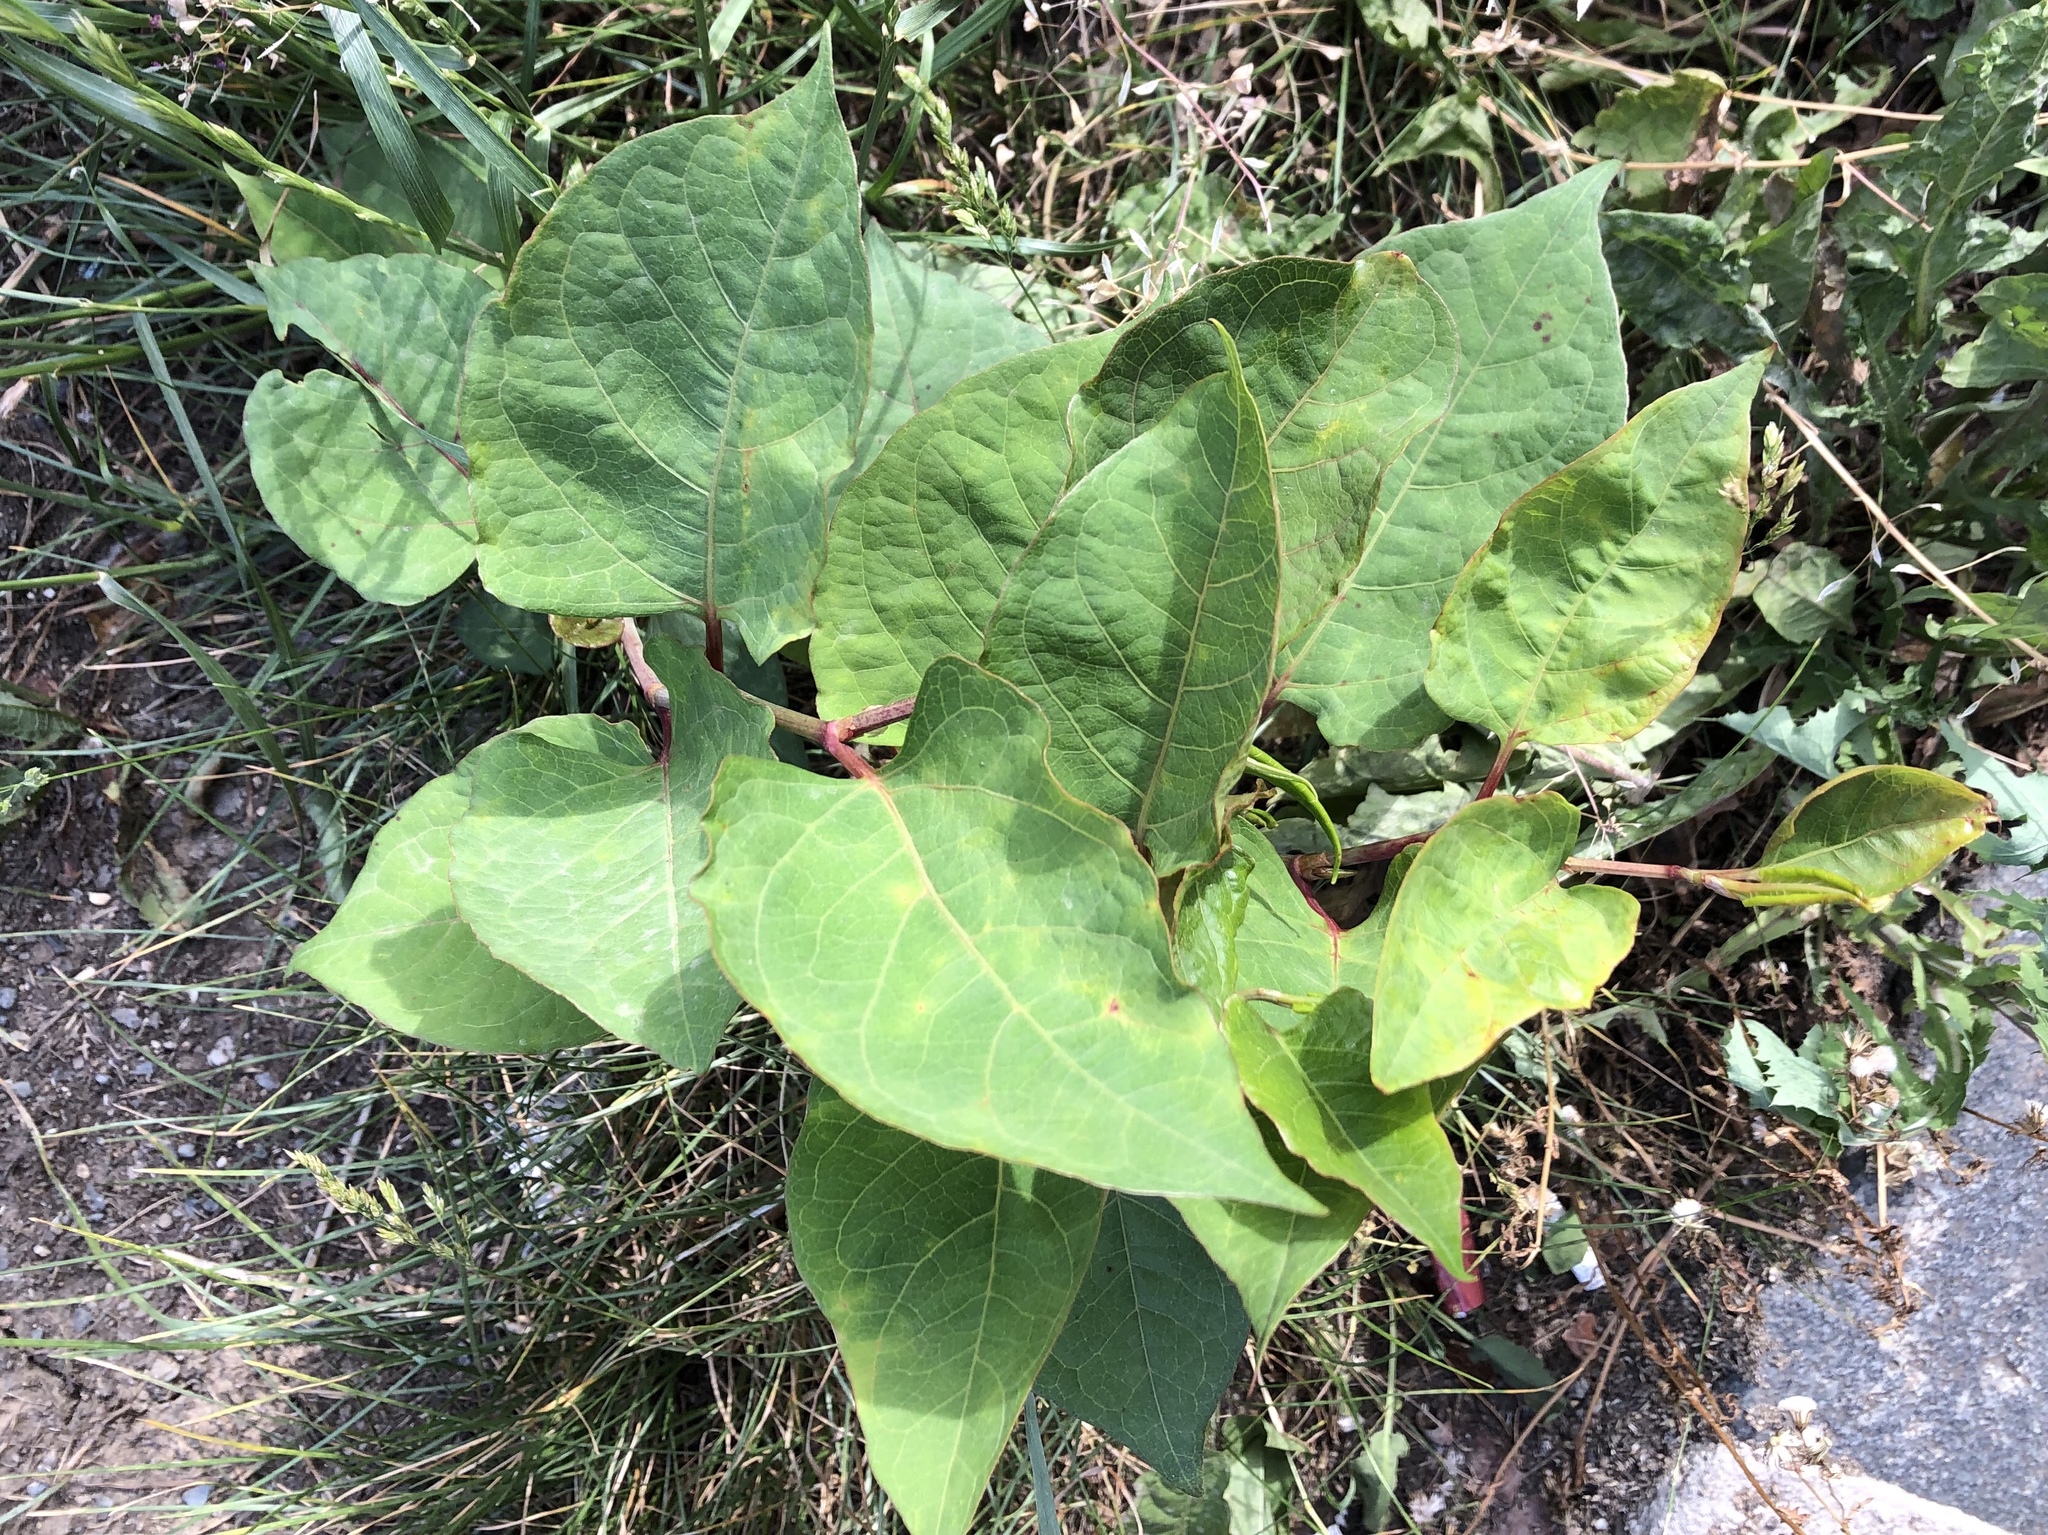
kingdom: Plantae
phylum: Tracheophyta
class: Magnoliopsida
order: Caryophyllales
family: Polygonaceae
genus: Reynoutria
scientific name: Reynoutria japonica
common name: Japanese knotweed
